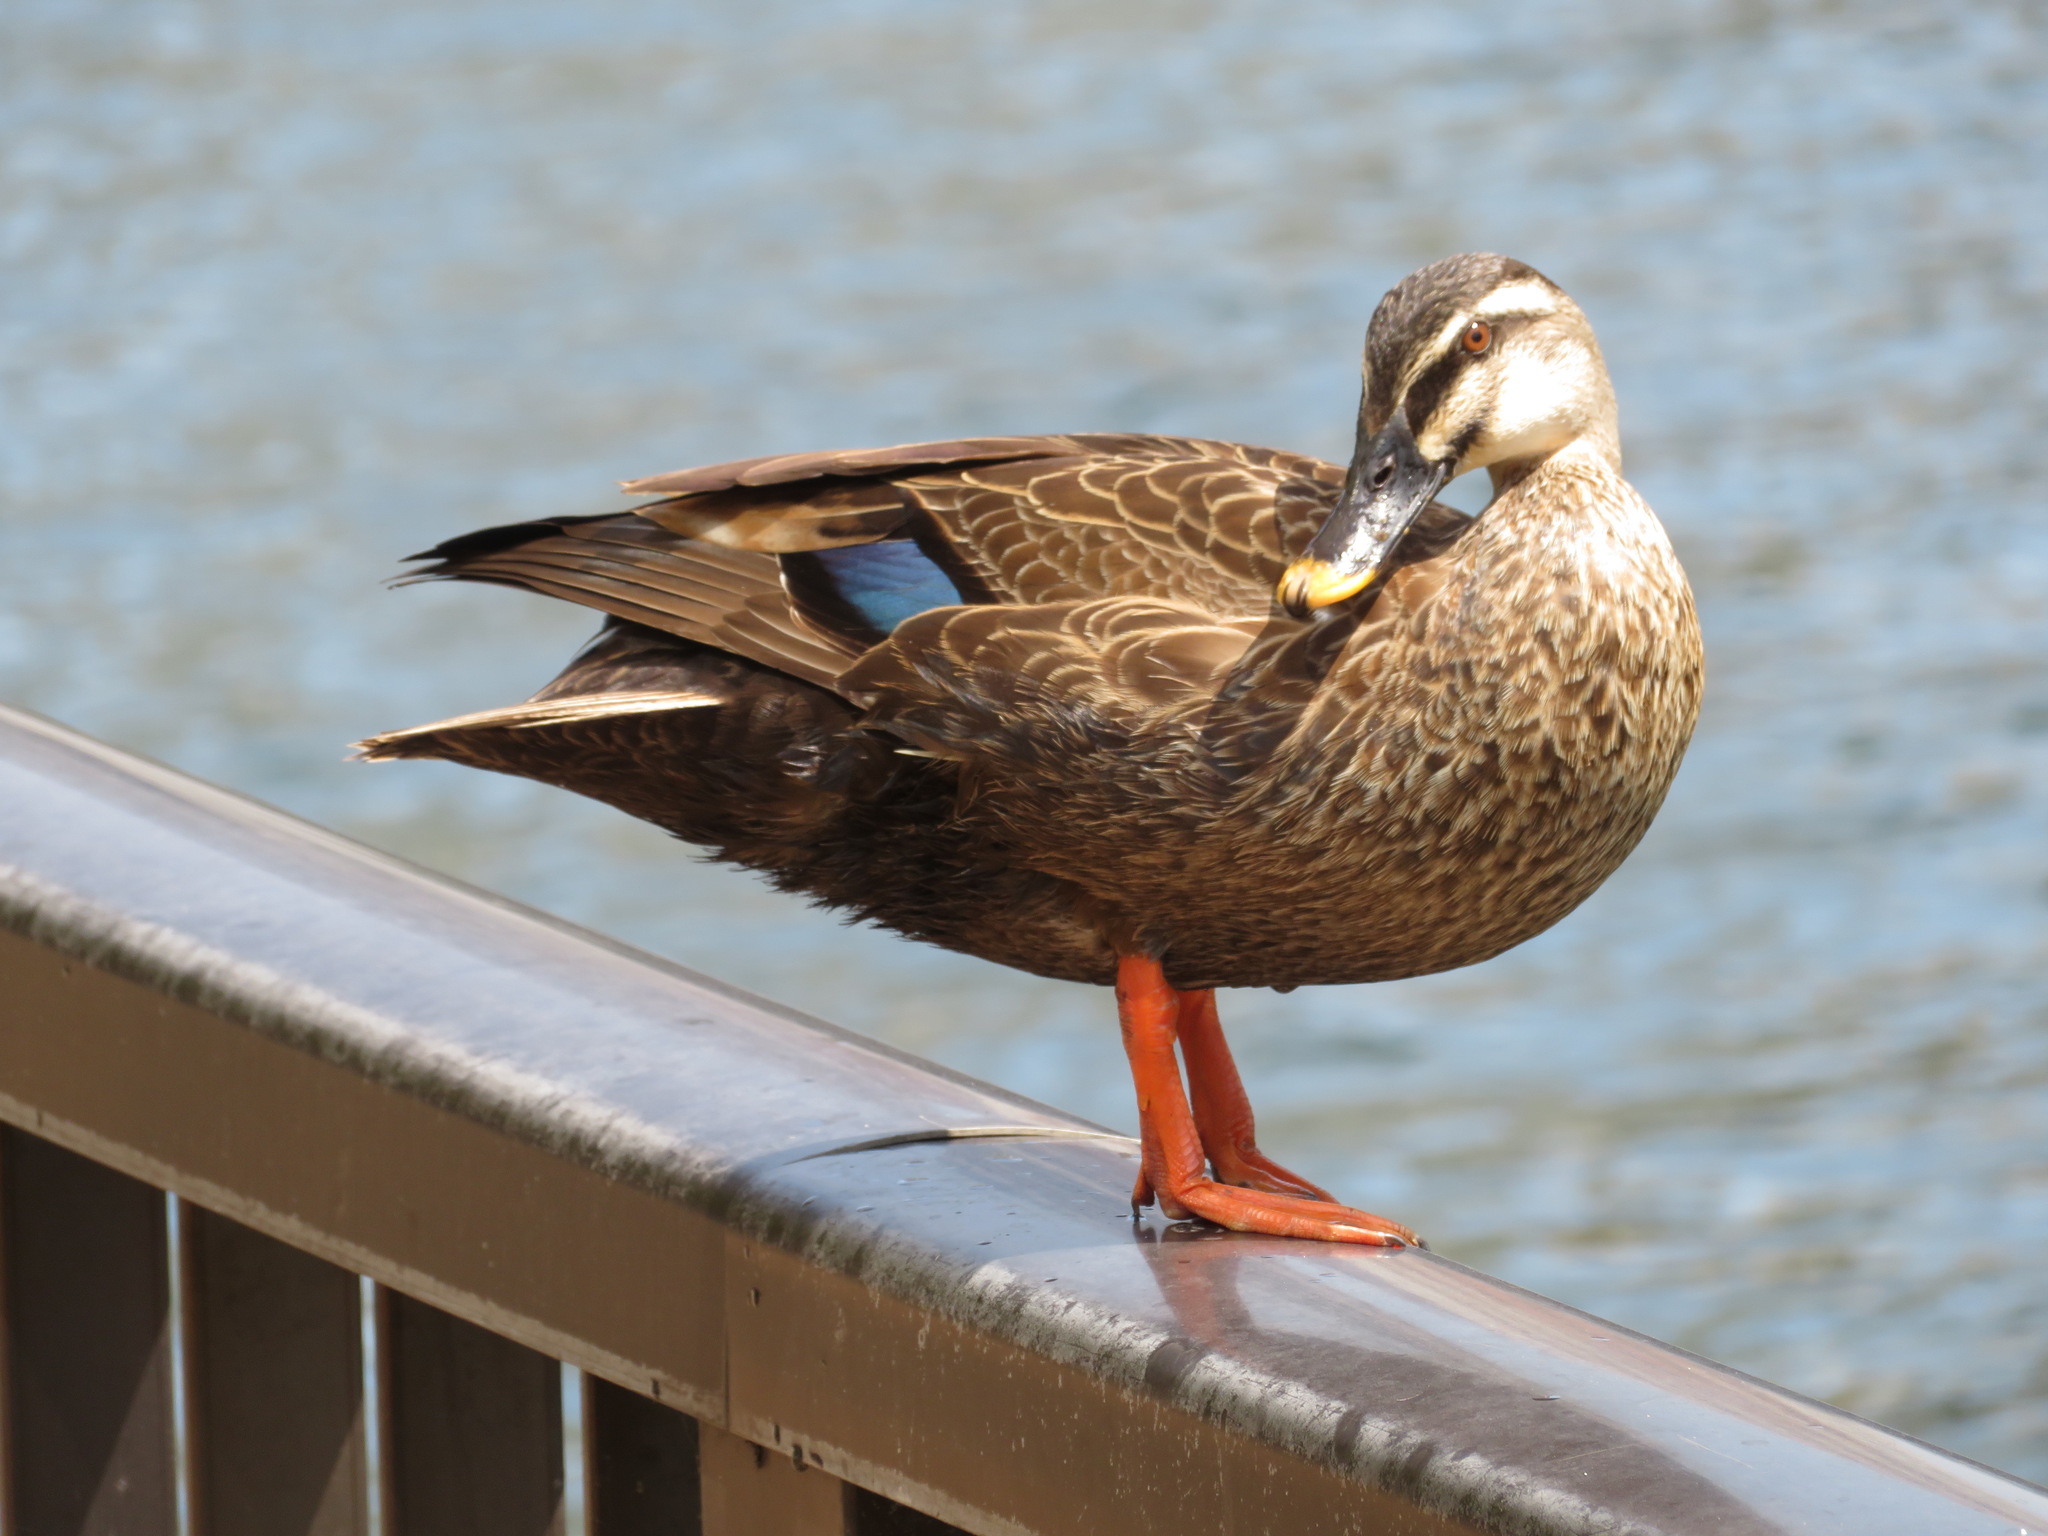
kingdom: Animalia
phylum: Chordata
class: Aves
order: Anseriformes
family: Anatidae
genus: Anas
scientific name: Anas zonorhyncha
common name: Eastern spot-billed duck
